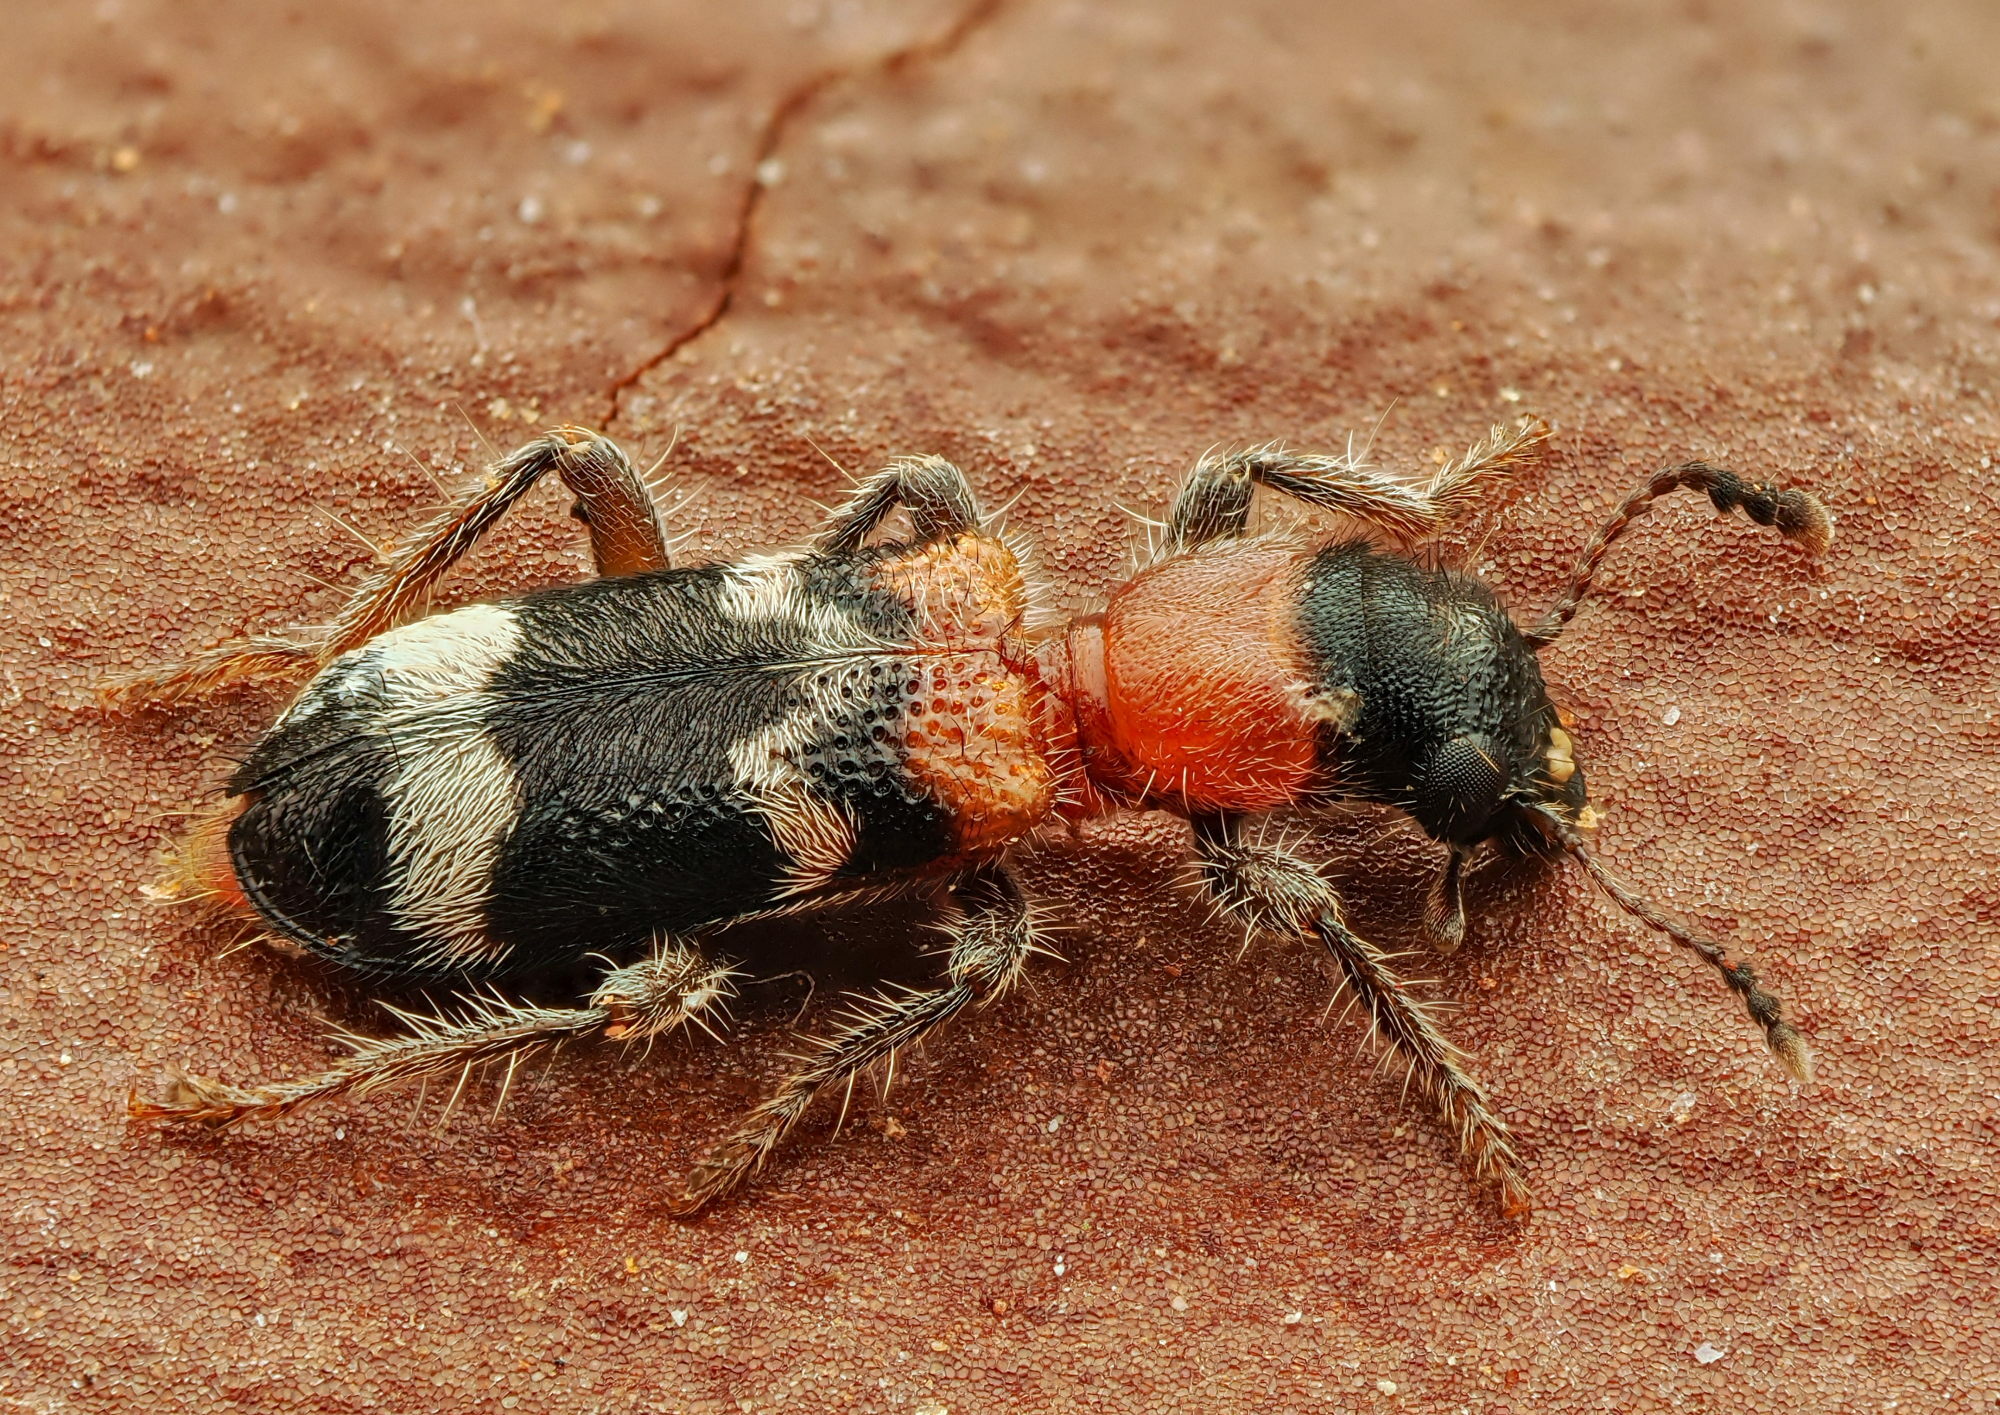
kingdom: Animalia
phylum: Arthropoda
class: Insecta
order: Coleoptera
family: Cleridae
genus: Thanasimus
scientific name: Thanasimus formicarius
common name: Ant beetle
